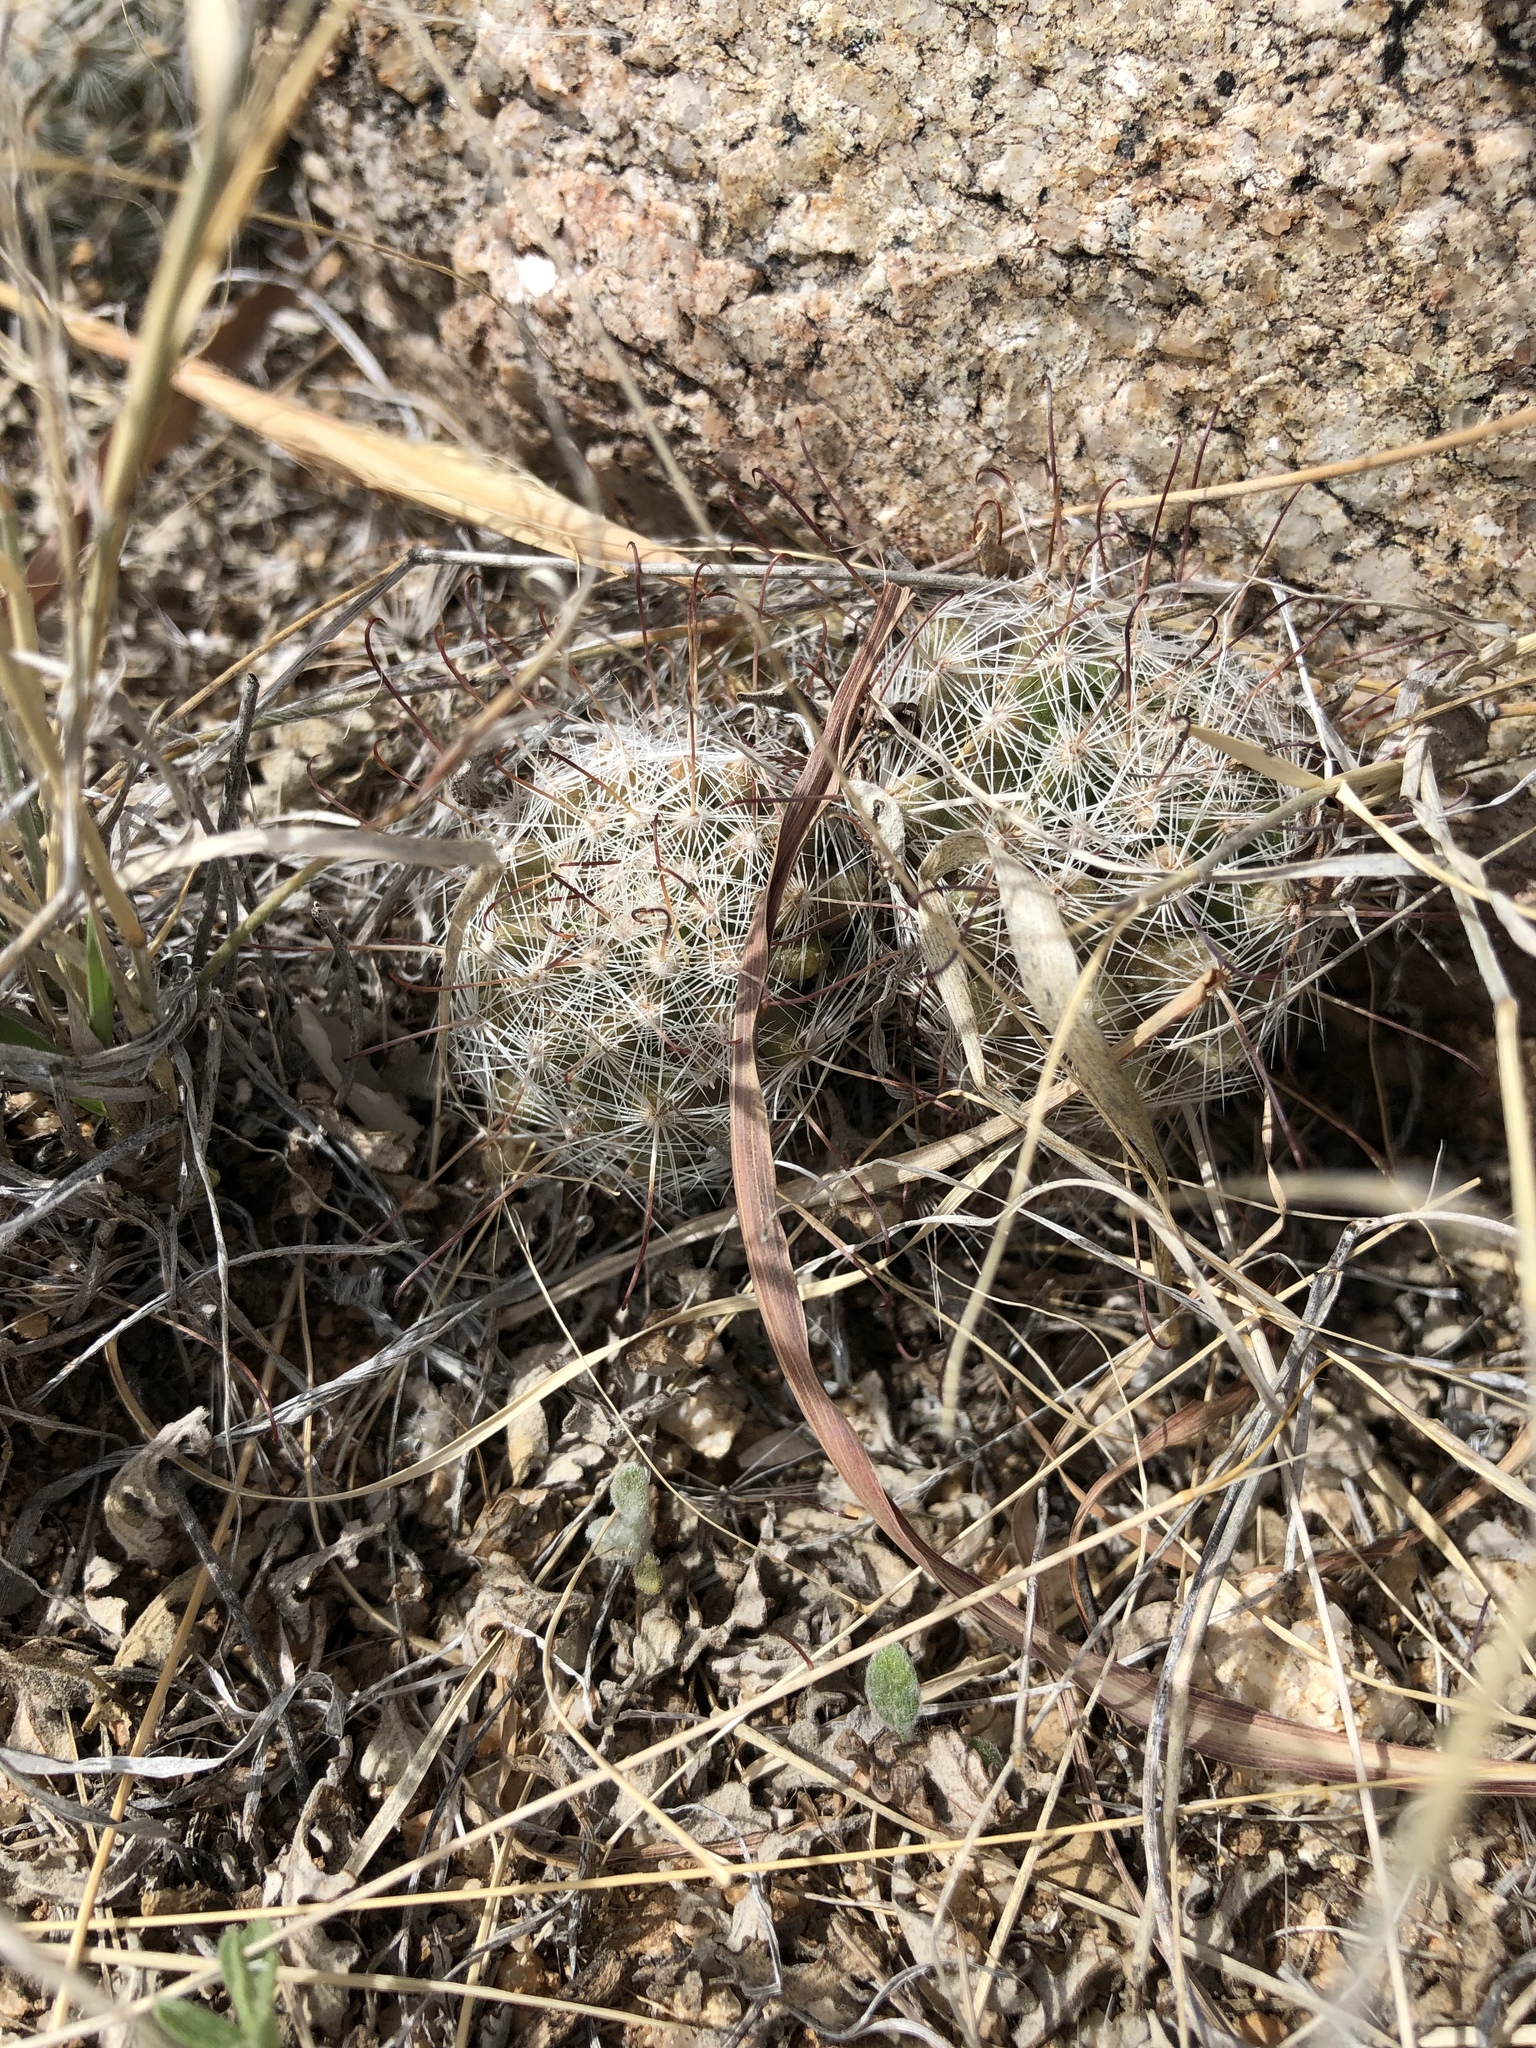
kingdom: Plantae
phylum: Tracheophyta
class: Magnoliopsida
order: Caryophyllales
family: Cactaceae
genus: Cochemiea
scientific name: Cochemiea grahamii
